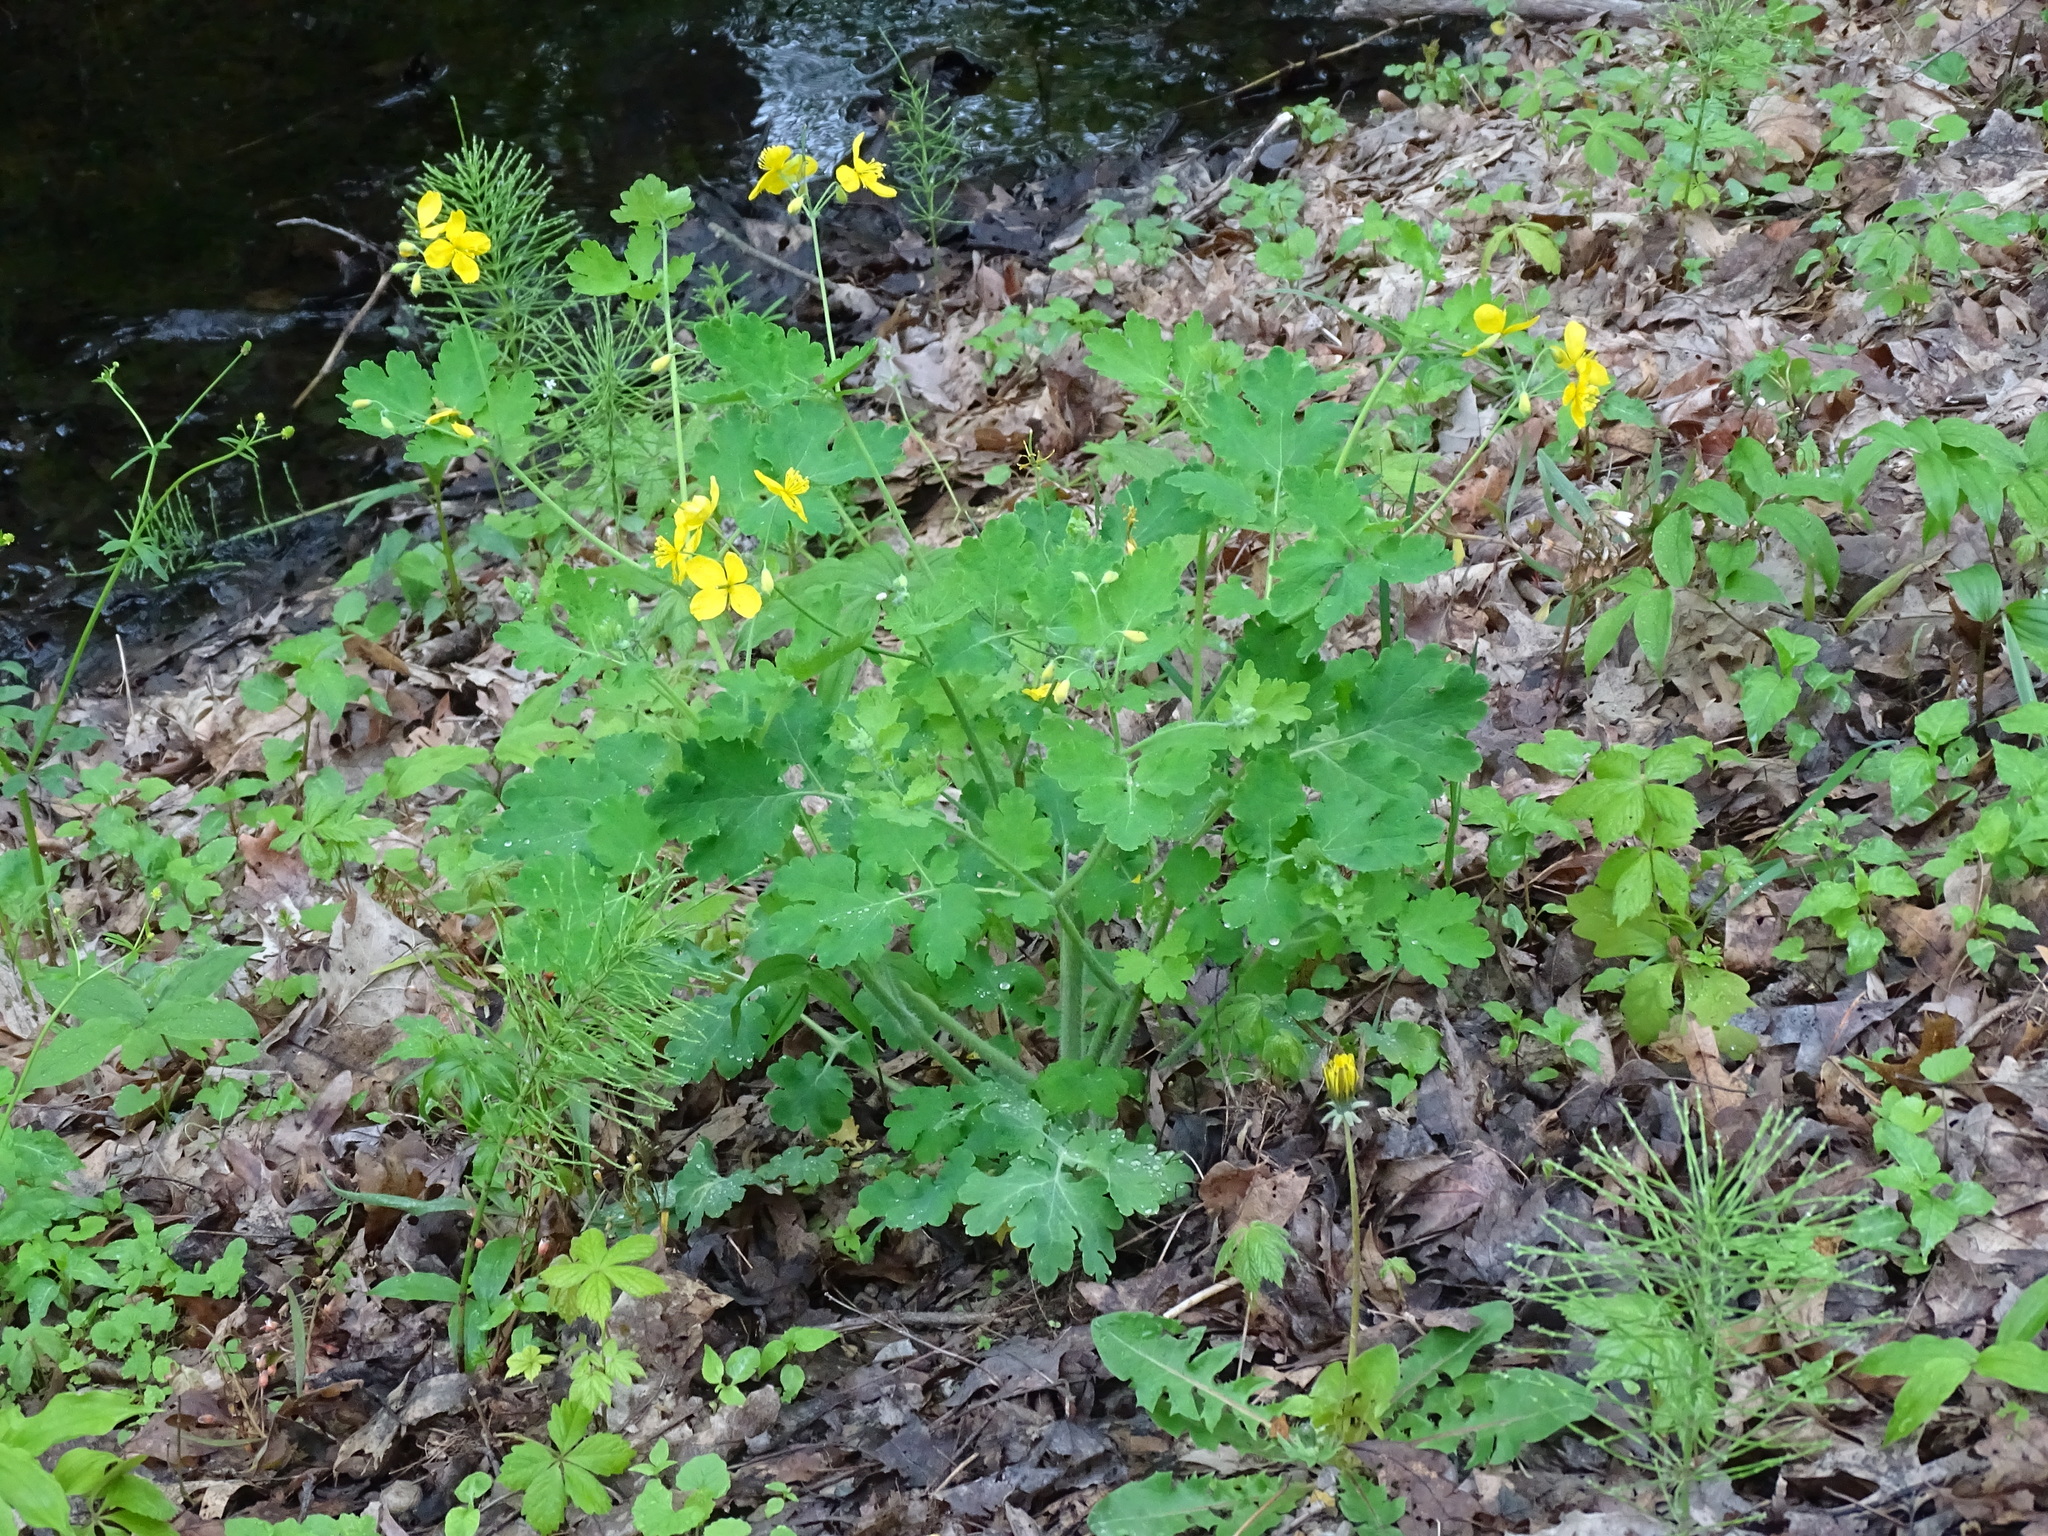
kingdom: Plantae
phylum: Tracheophyta
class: Magnoliopsida
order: Ranunculales
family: Papaveraceae
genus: Chelidonium
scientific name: Chelidonium majus
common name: Greater celandine
